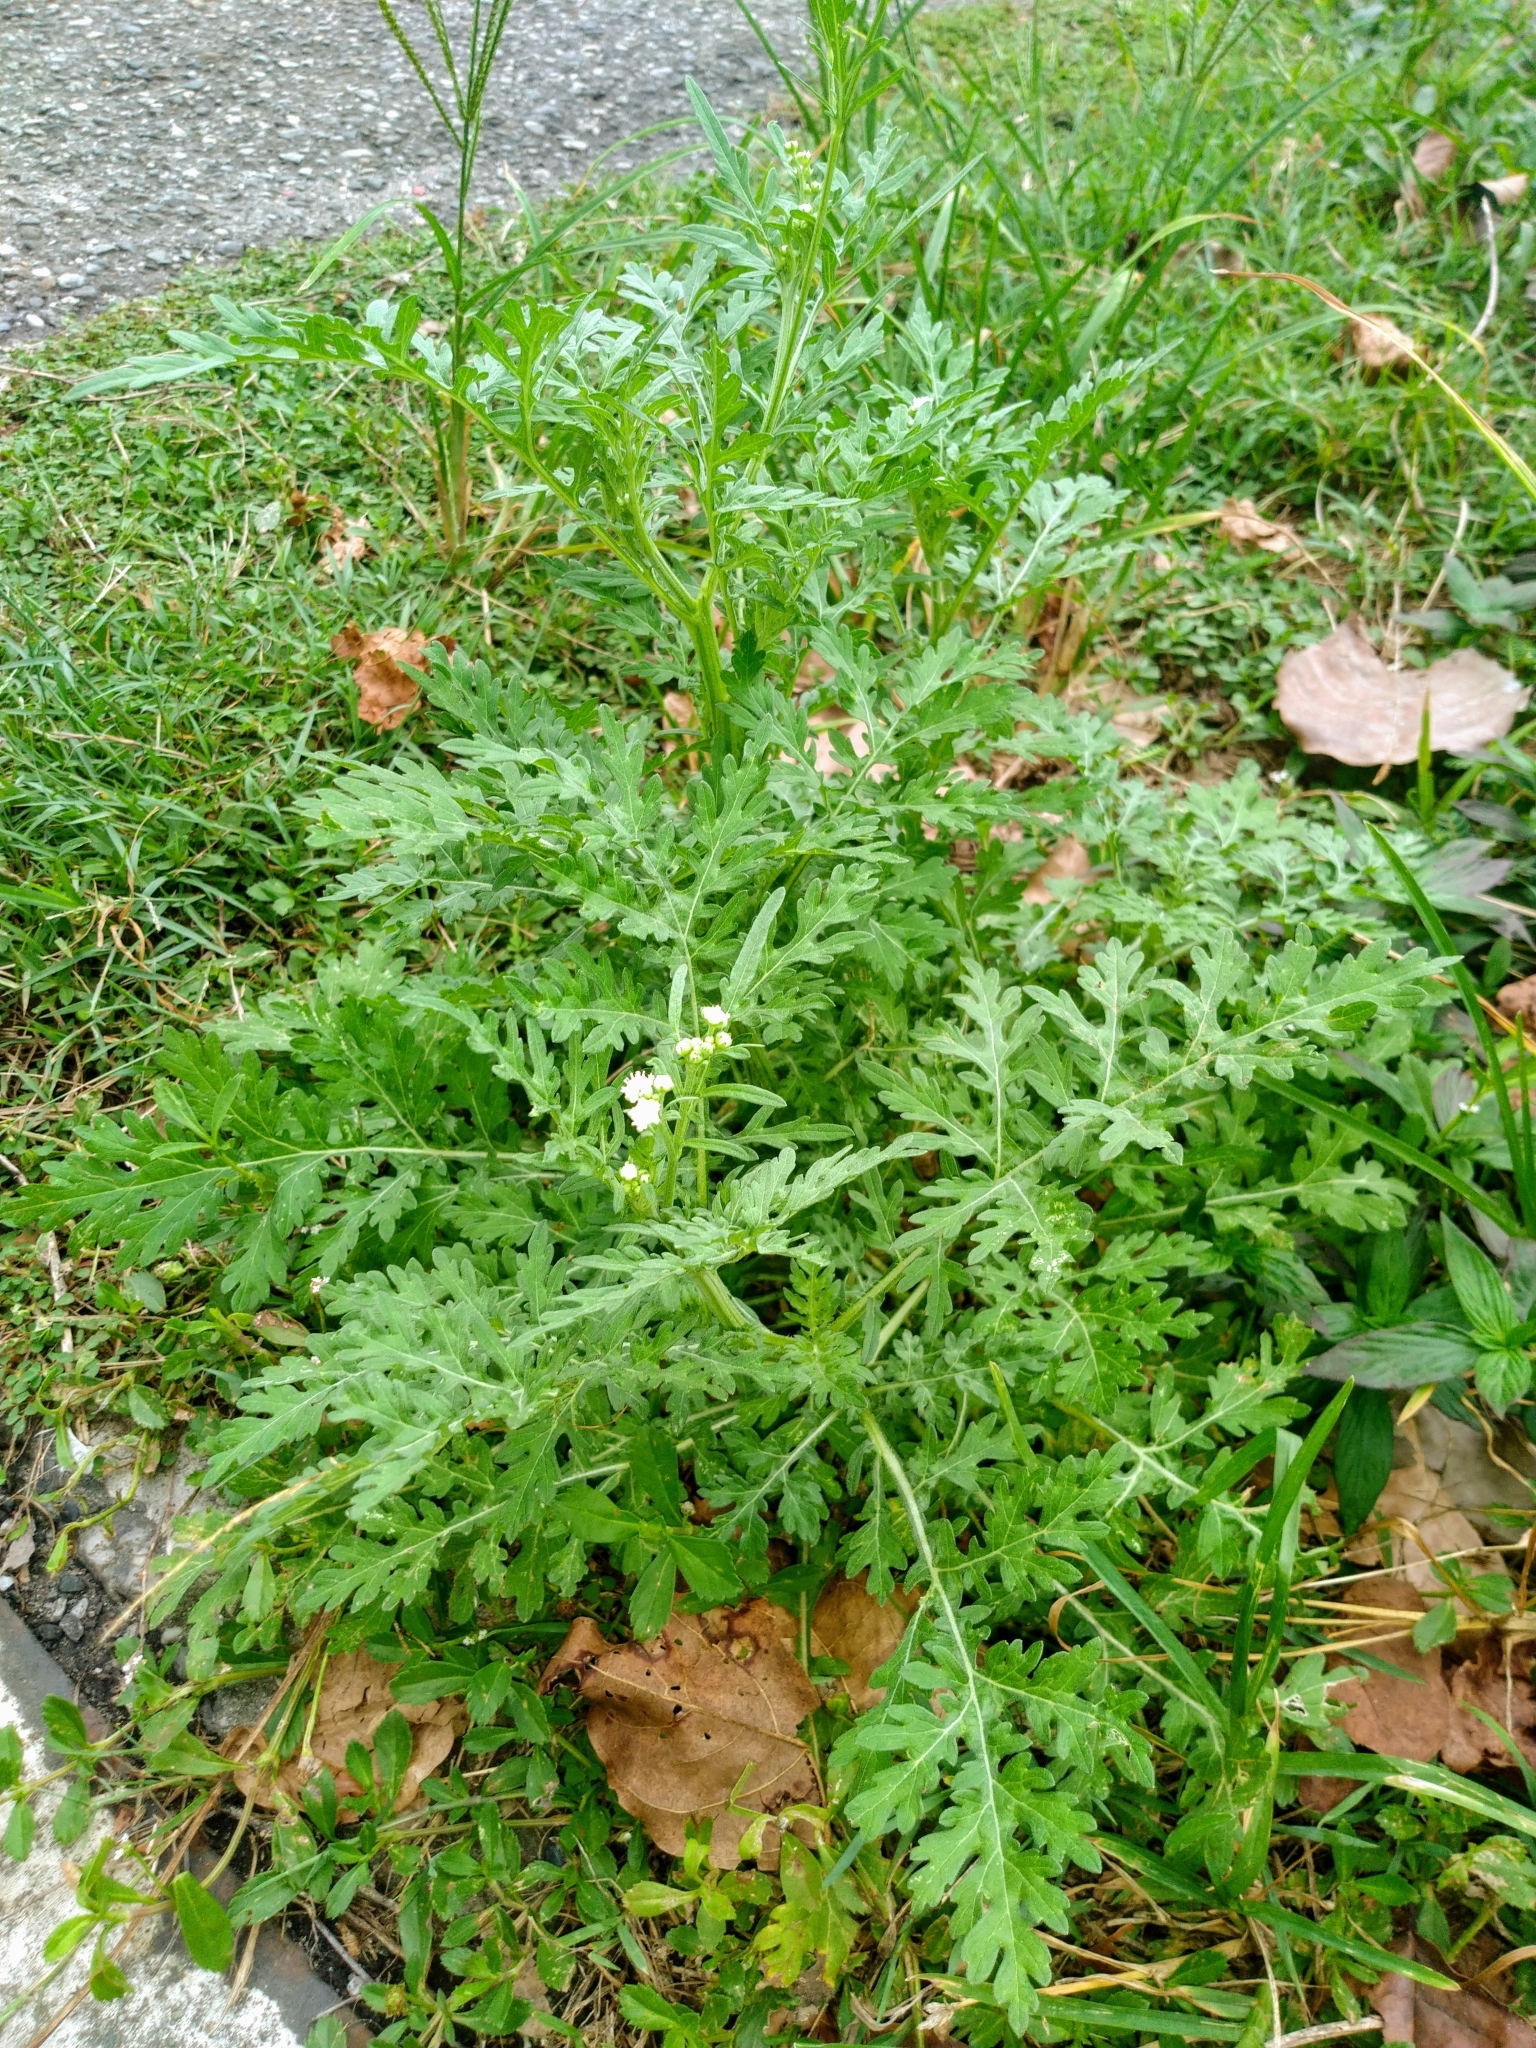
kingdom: Plantae
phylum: Tracheophyta
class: Magnoliopsida
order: Asterales
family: Asteraceae
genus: Parthenium
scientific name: Parthenium hysterophorus
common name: Santa maria feverfew
